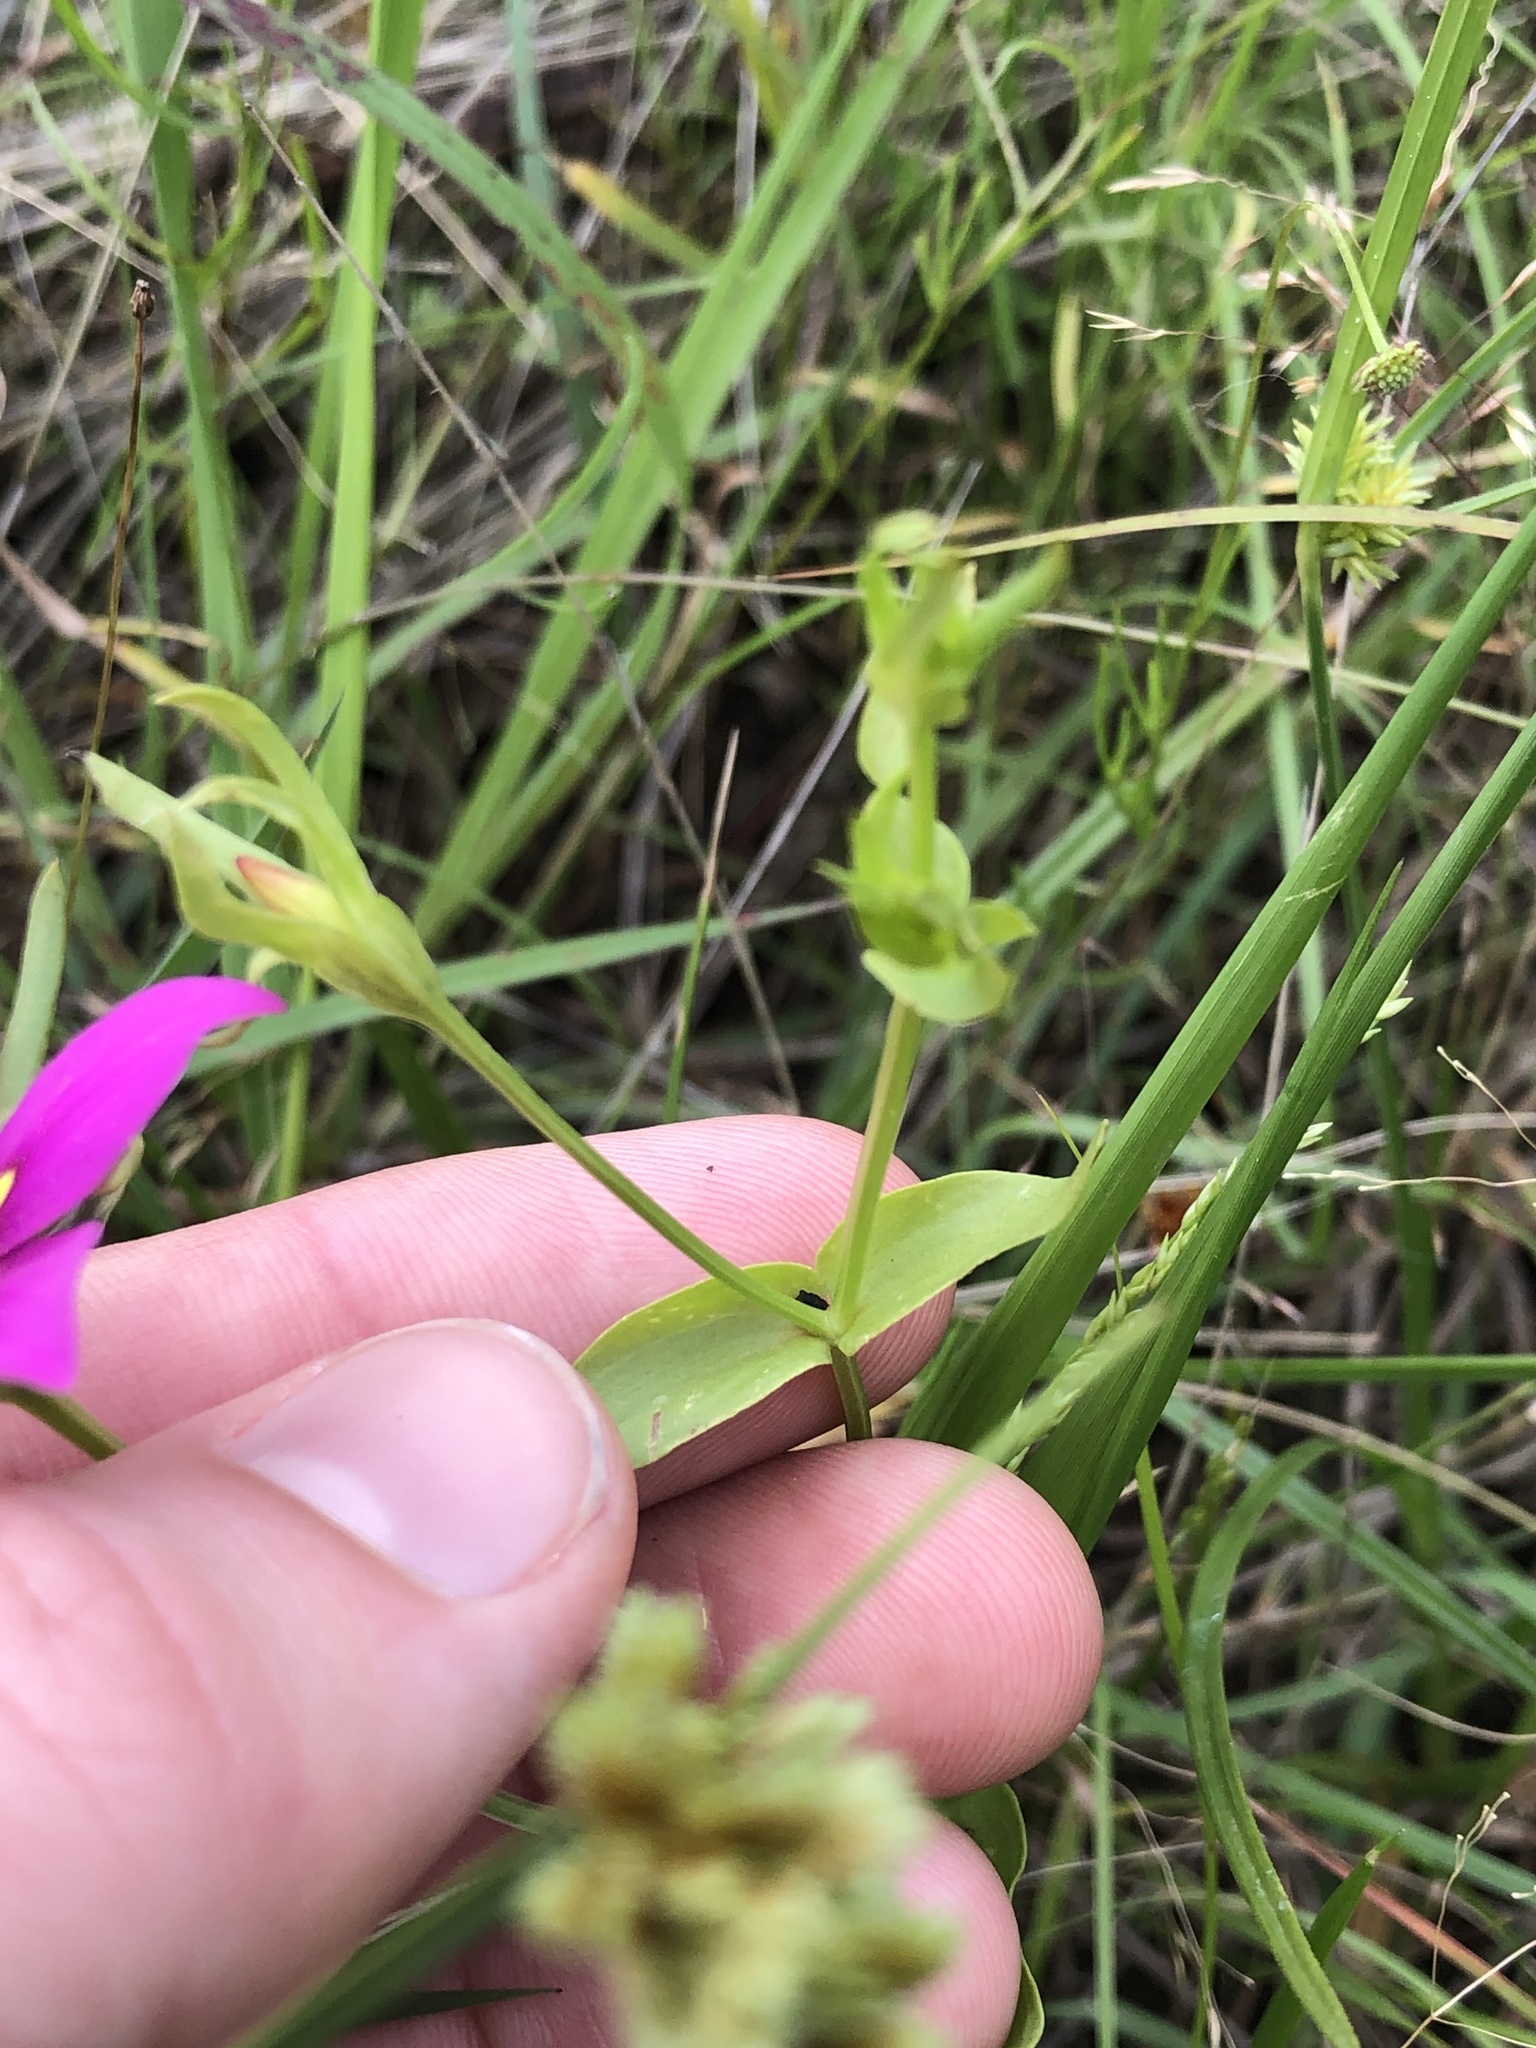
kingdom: Plantae
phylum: Tracheophyta
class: Magnoliopsida
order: Gentianales
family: Gentianaceae
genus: Sabatia
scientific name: Sabatia campestris
